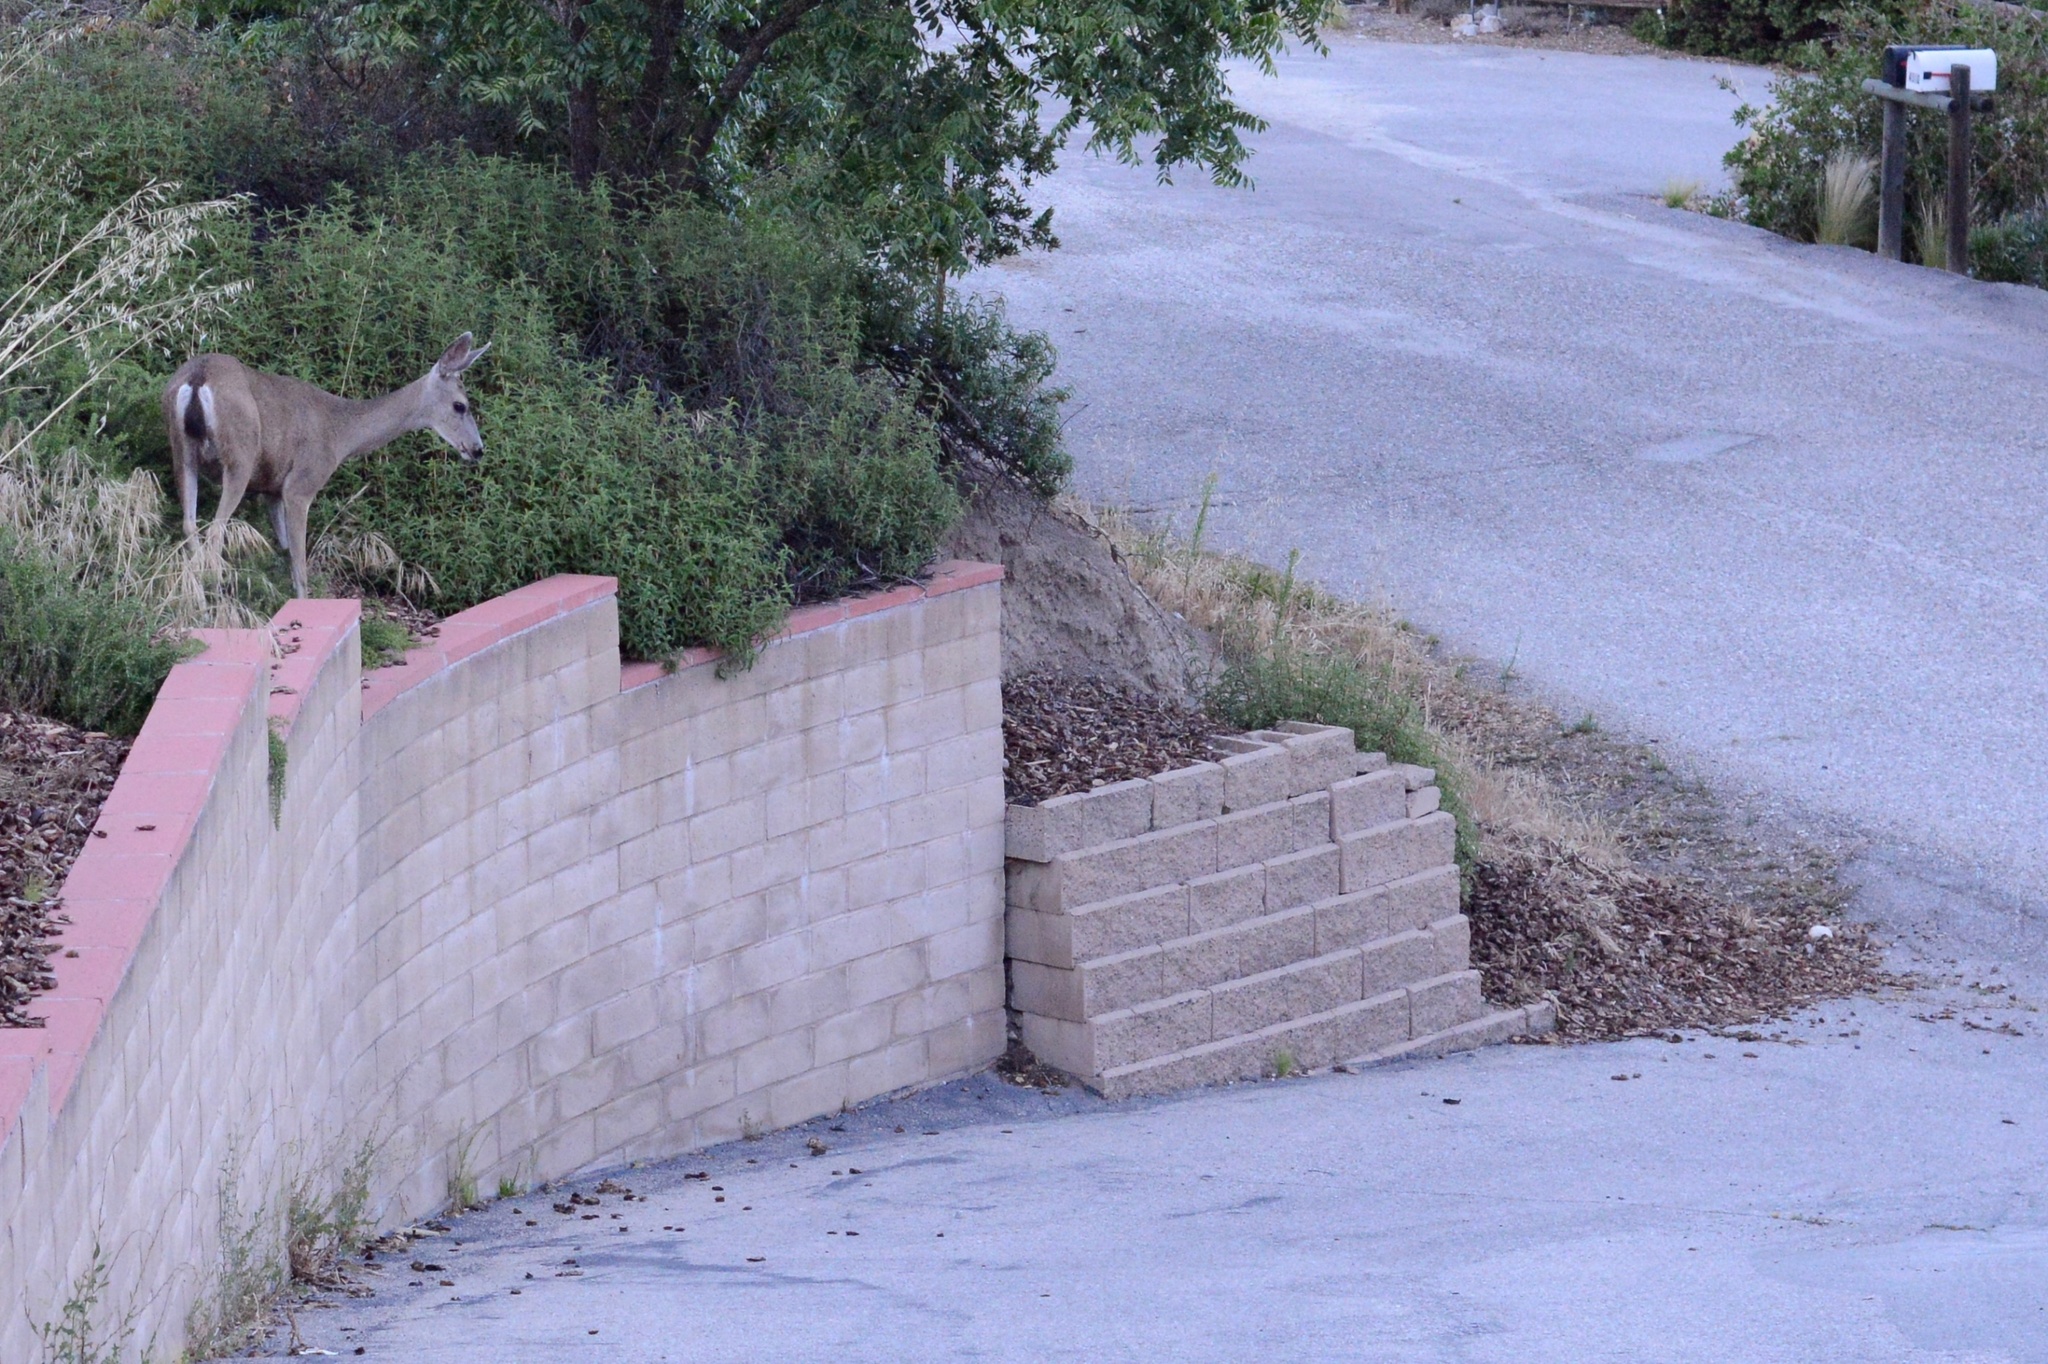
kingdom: Animalia
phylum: Chordata
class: Mammalia
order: Artiodactyla
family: Cervidae
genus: Odocoileus
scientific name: Odocoileus hemionus
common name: Mule deer
